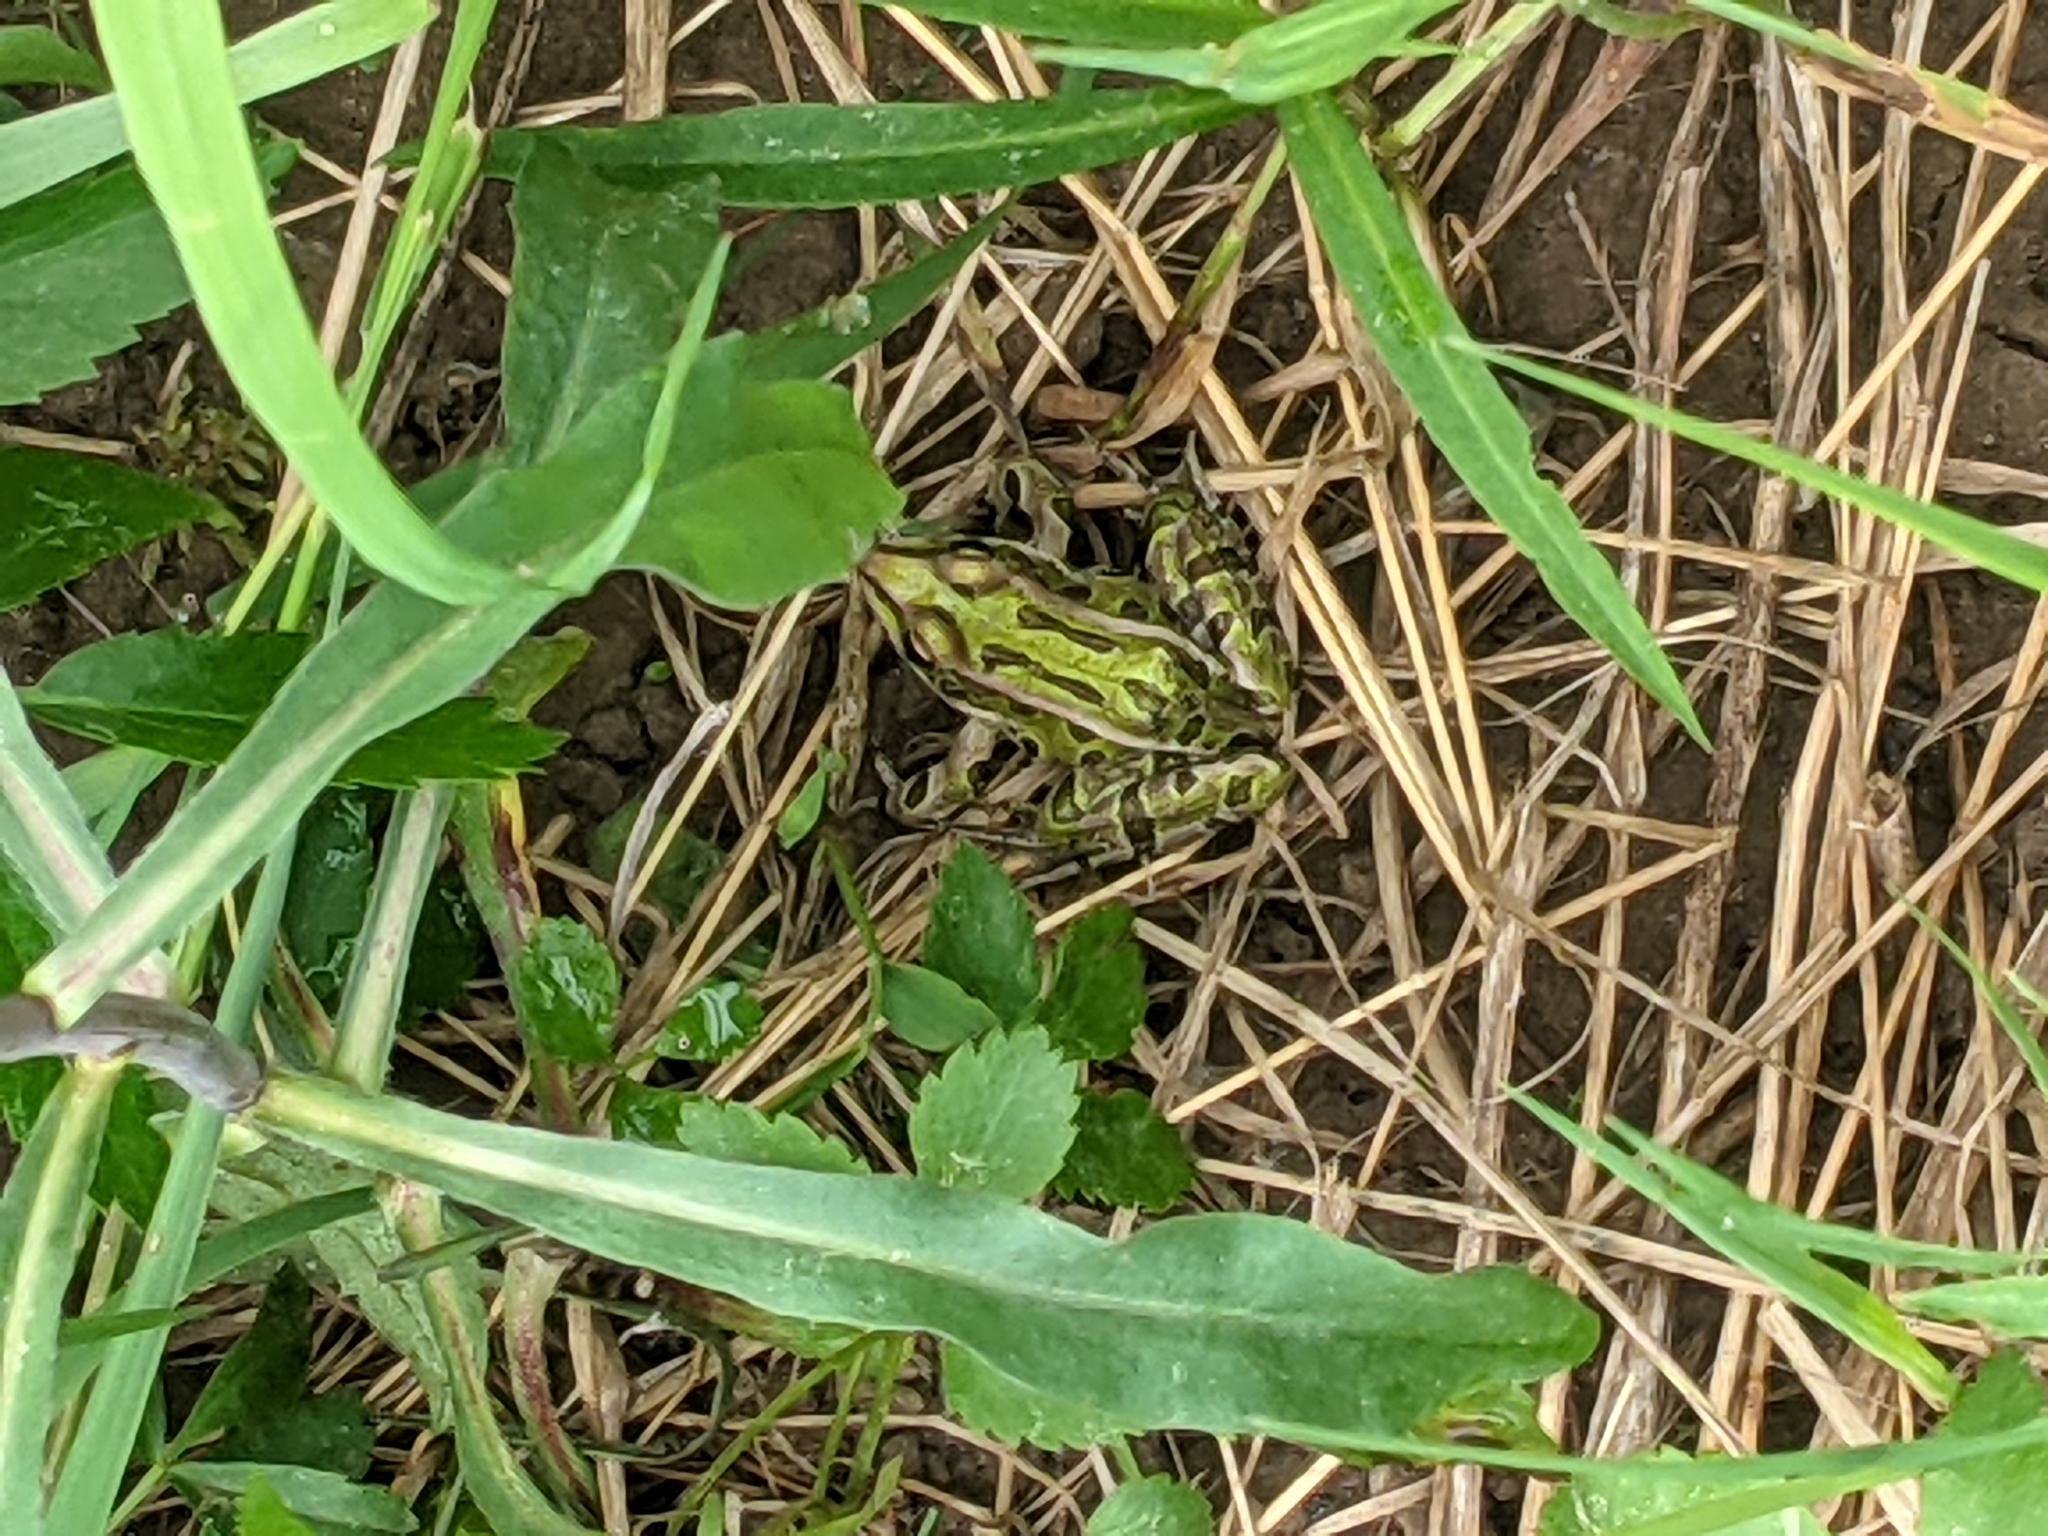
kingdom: Animalia
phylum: Chordata
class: Amphibia
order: Anura
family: Ranidae
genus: Lithobates
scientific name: Lithobates pipiens
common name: Northern leopard frog
